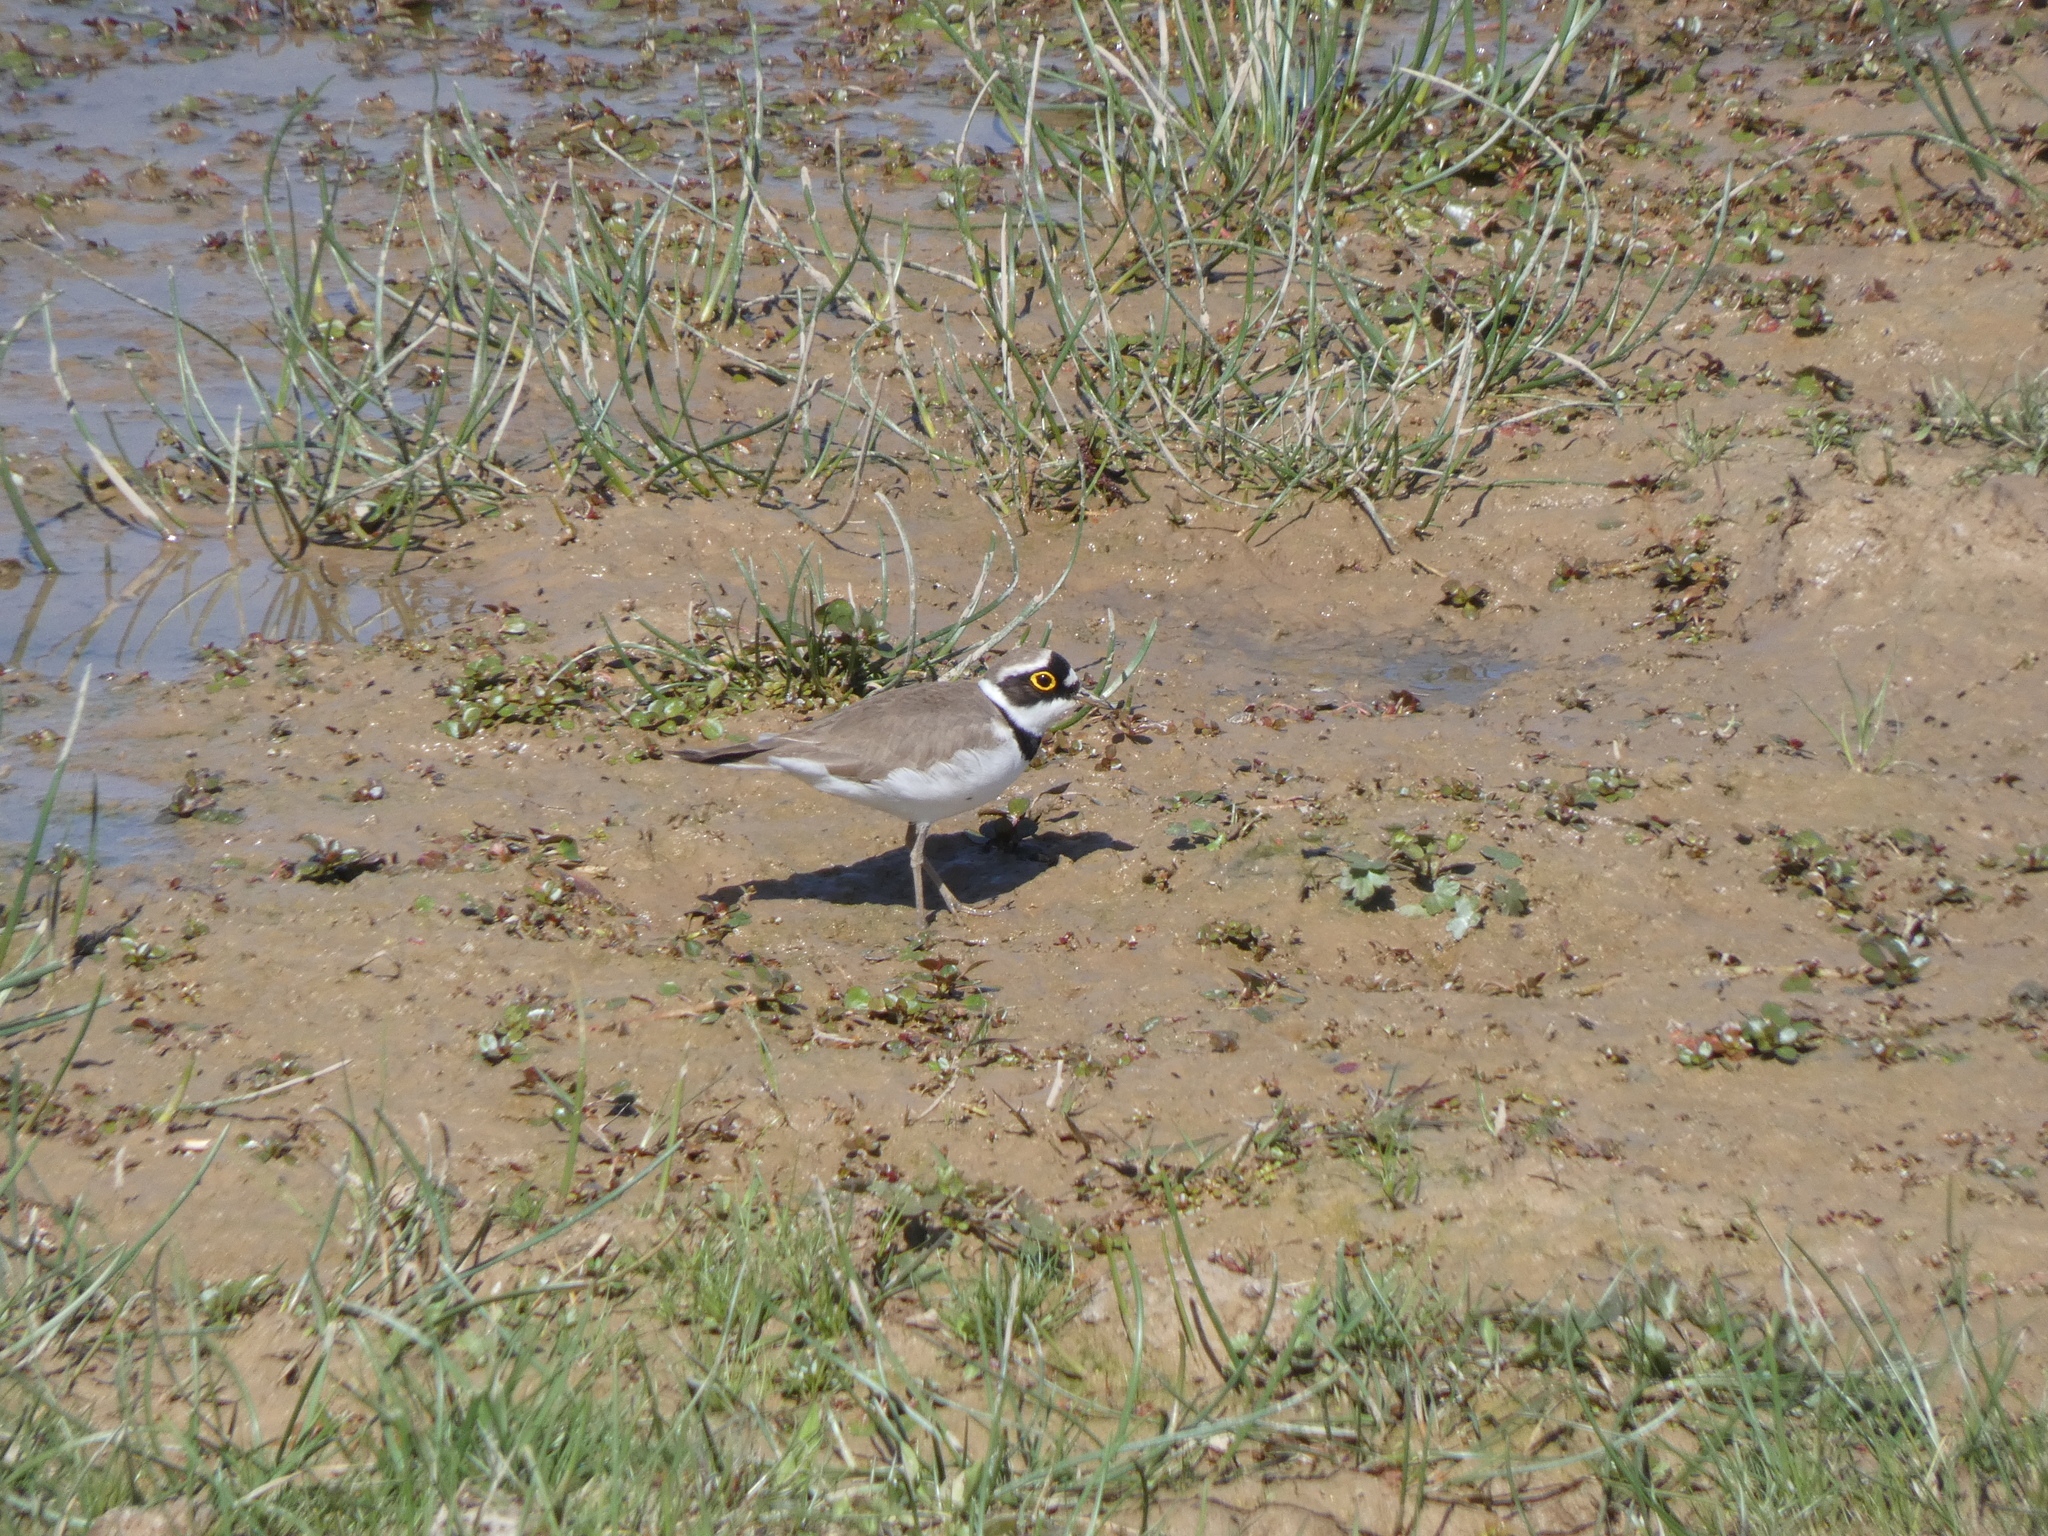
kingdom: Animalia
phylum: Chordata
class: Aves
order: Charadriiformes
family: Charadriidae
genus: Charadrius
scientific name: Charadrius dubius
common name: Little ringed plover
